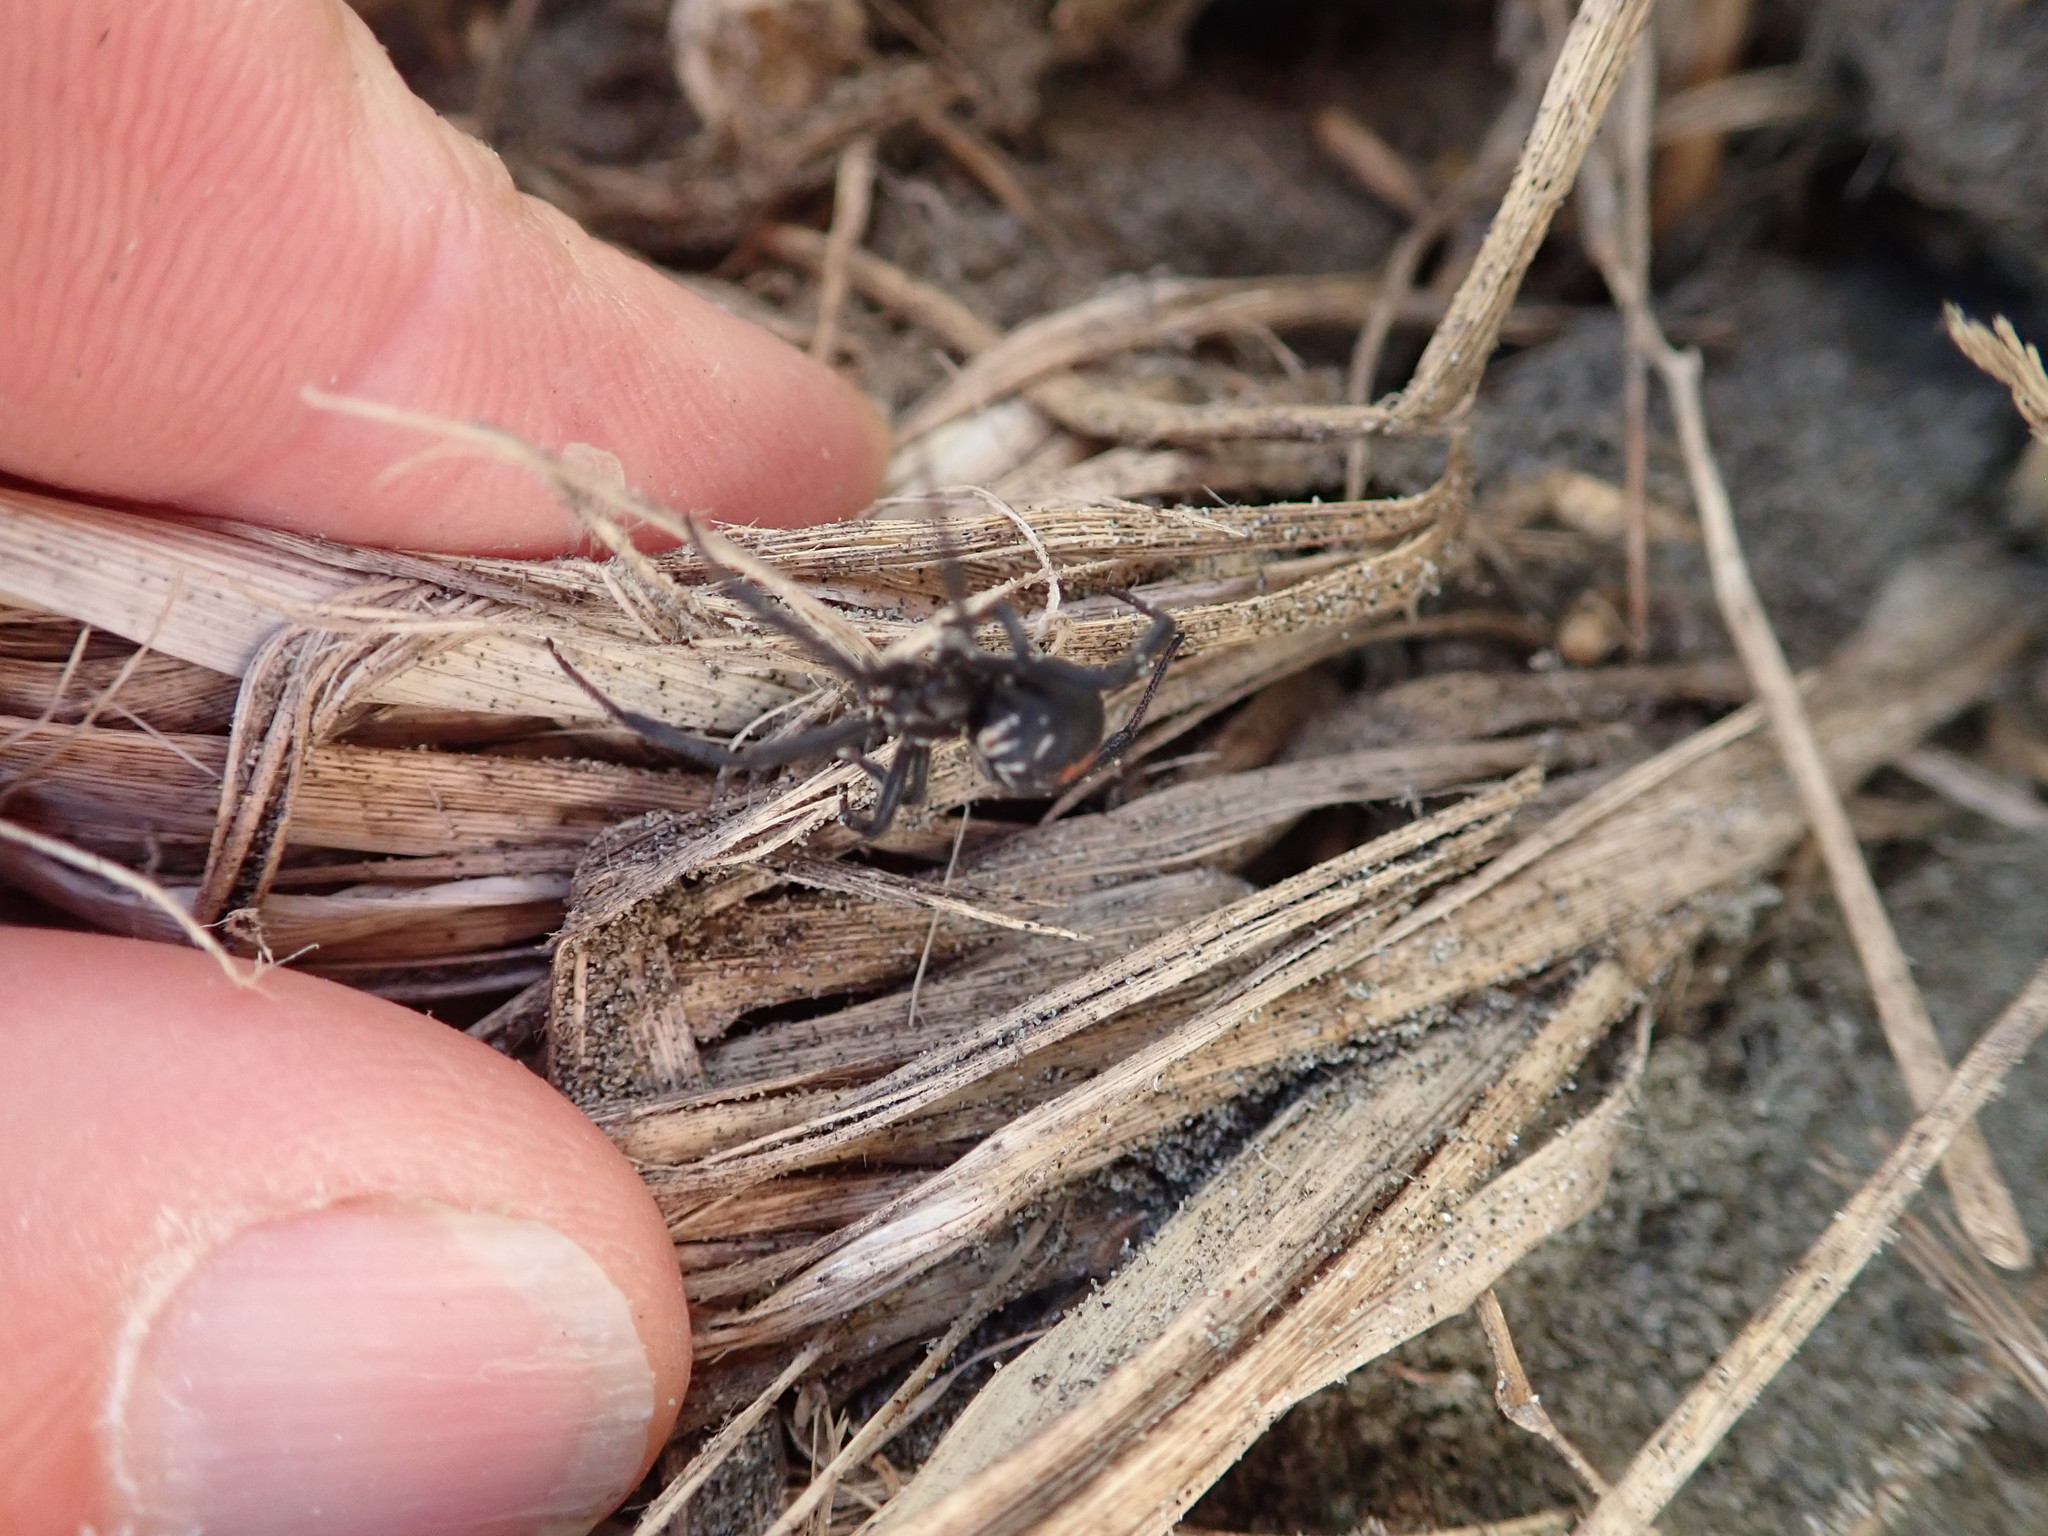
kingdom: Animalia
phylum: Arthropoda
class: Arachnida
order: Araneae
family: Theridiidae
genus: Latrodectus
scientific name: Latrodectus katipo
